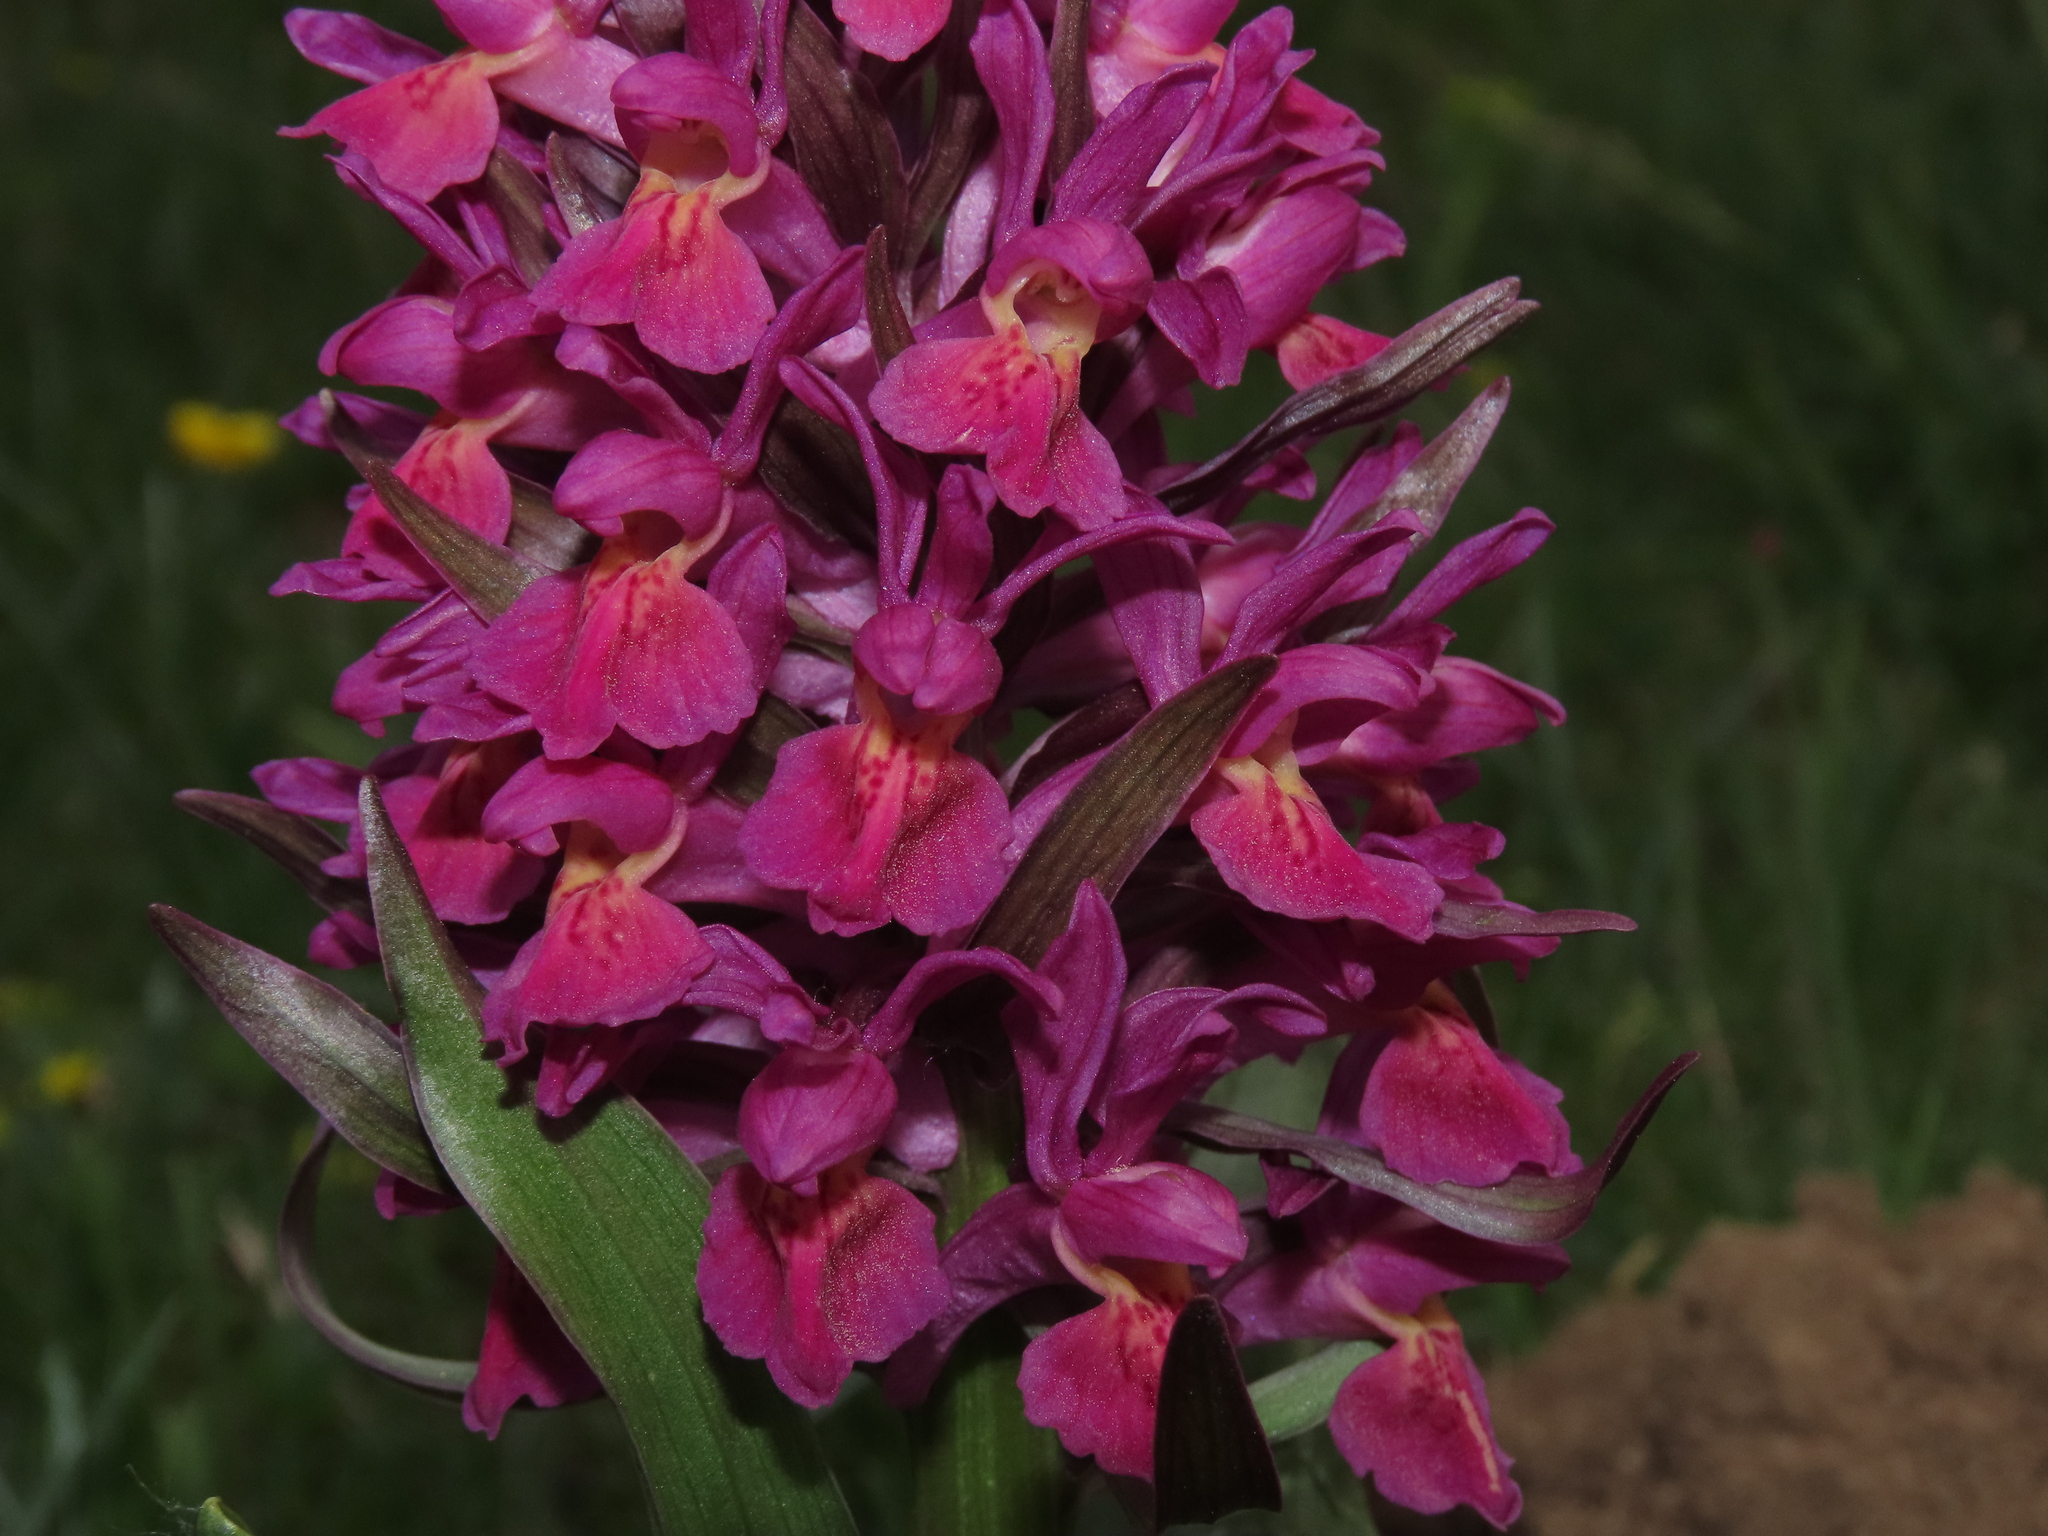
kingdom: Plantae
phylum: Tracheophyta
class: Liliopsida
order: Asparagales
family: Orchidaceae
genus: Dactylorhiza
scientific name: Dactylorhiza sambucina
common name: Elder-flowered orchid
